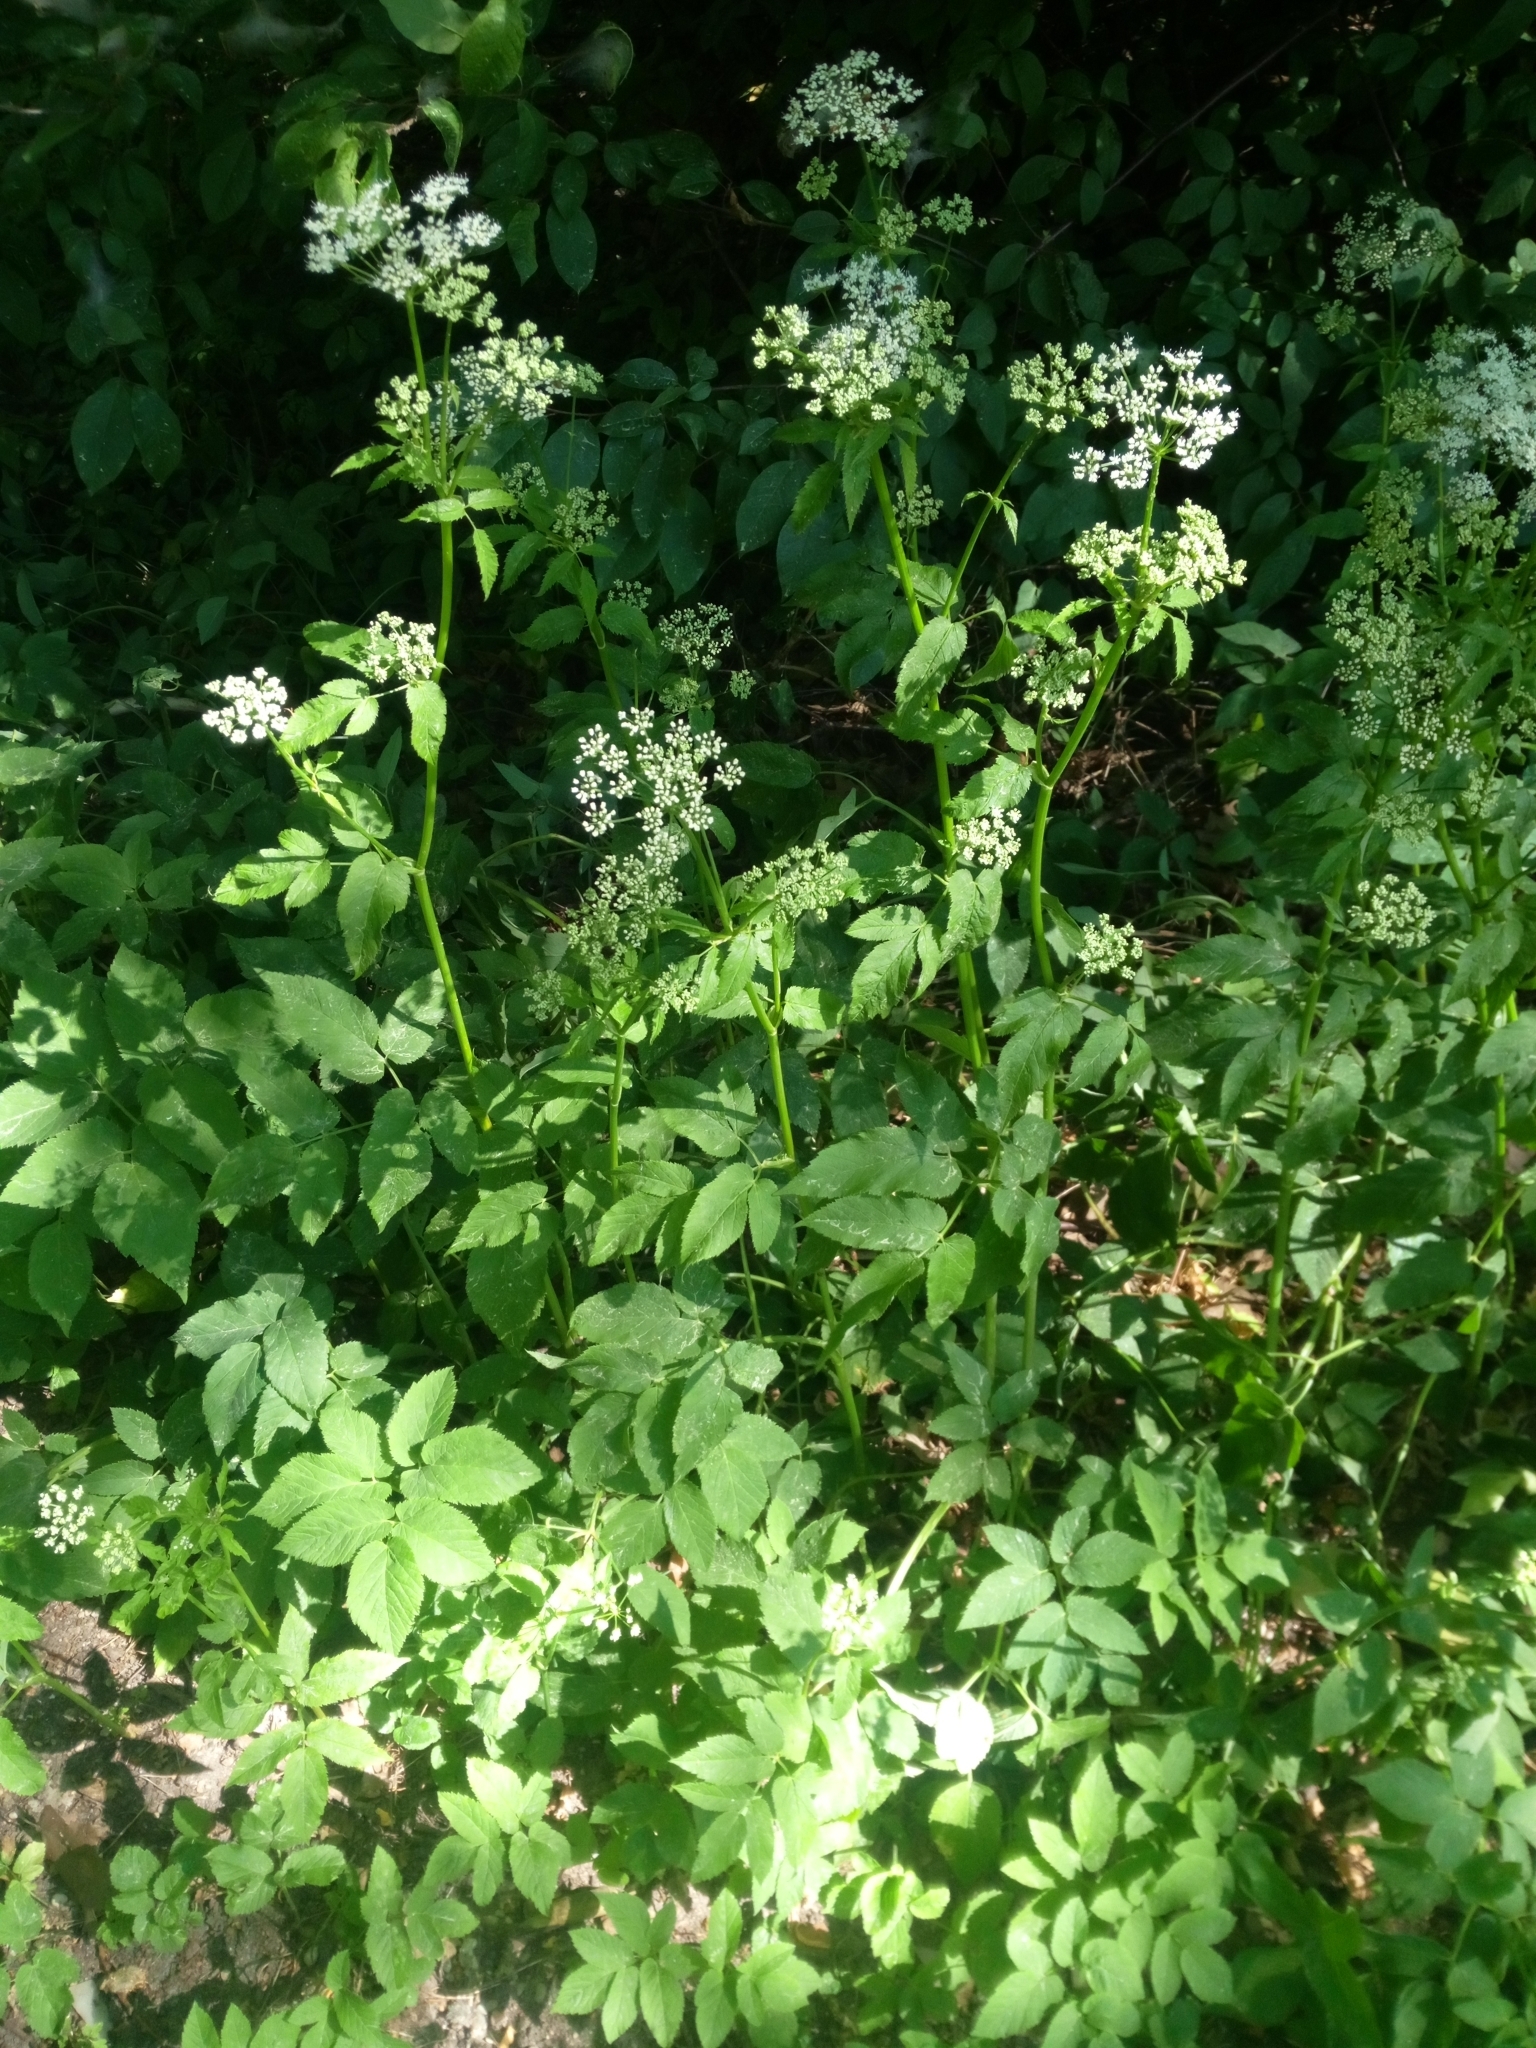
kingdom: Plantae
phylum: Tracheophyta
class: Magnoliopsida
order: Apiales
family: Apiaceae
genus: Aegopodium
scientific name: Aegopodium podagraria
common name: Ground-elder
